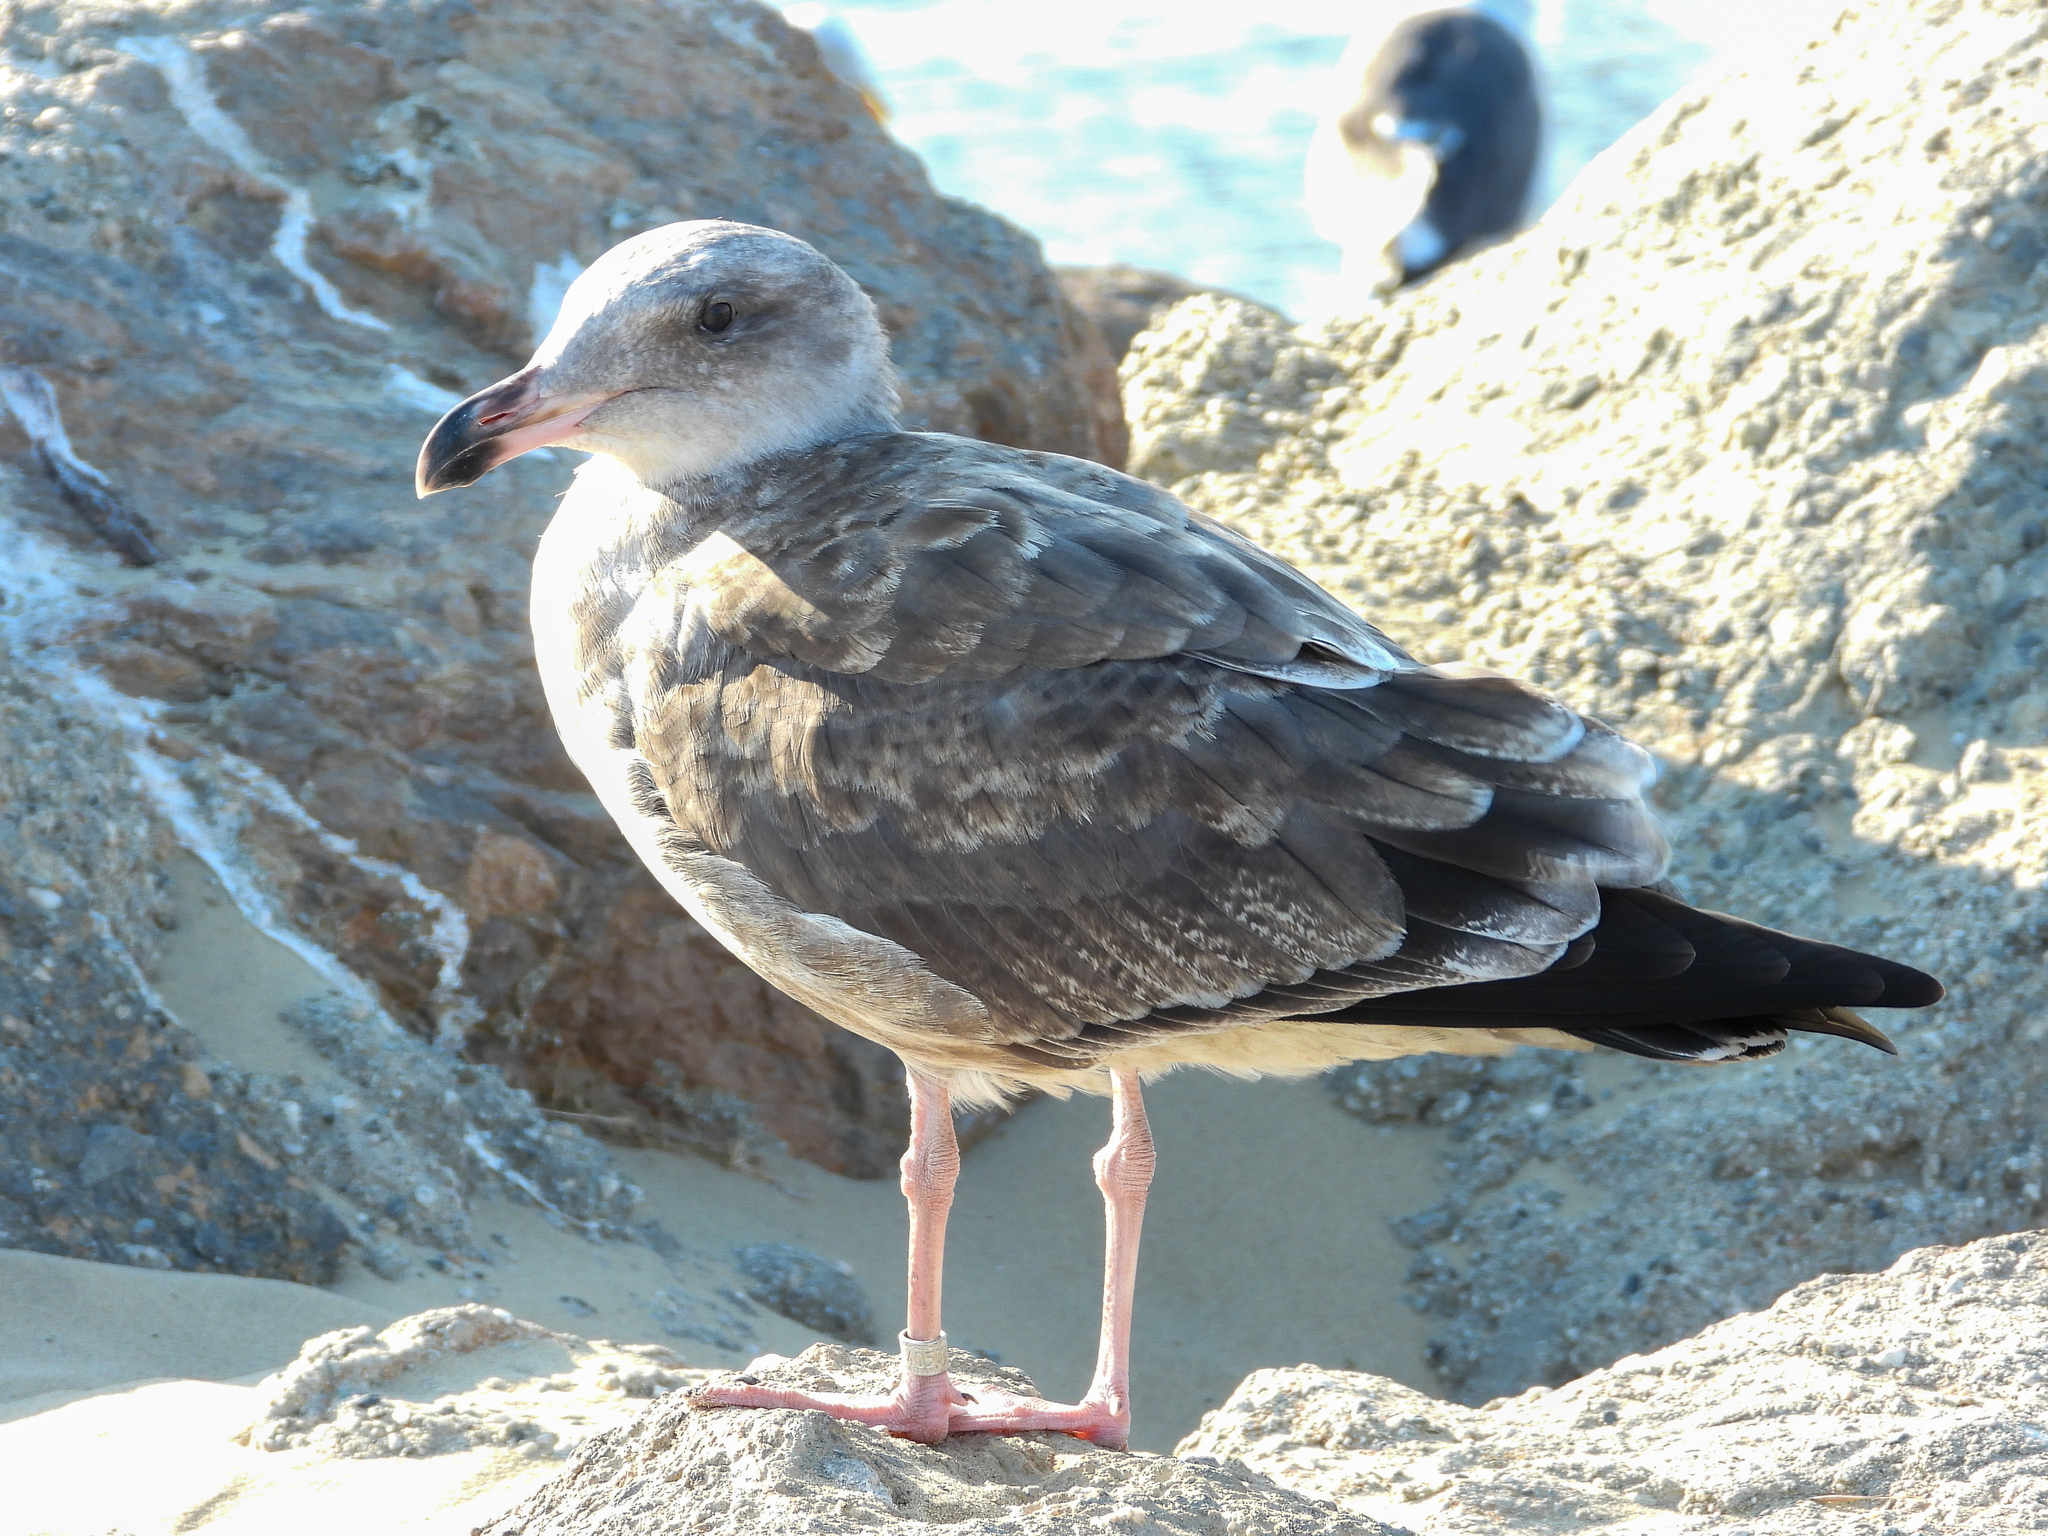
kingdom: Animalia
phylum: Chordata
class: Aves
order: Charadriiformes
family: Laridae
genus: Larus
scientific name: Larus occidentalis
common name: Western gull
